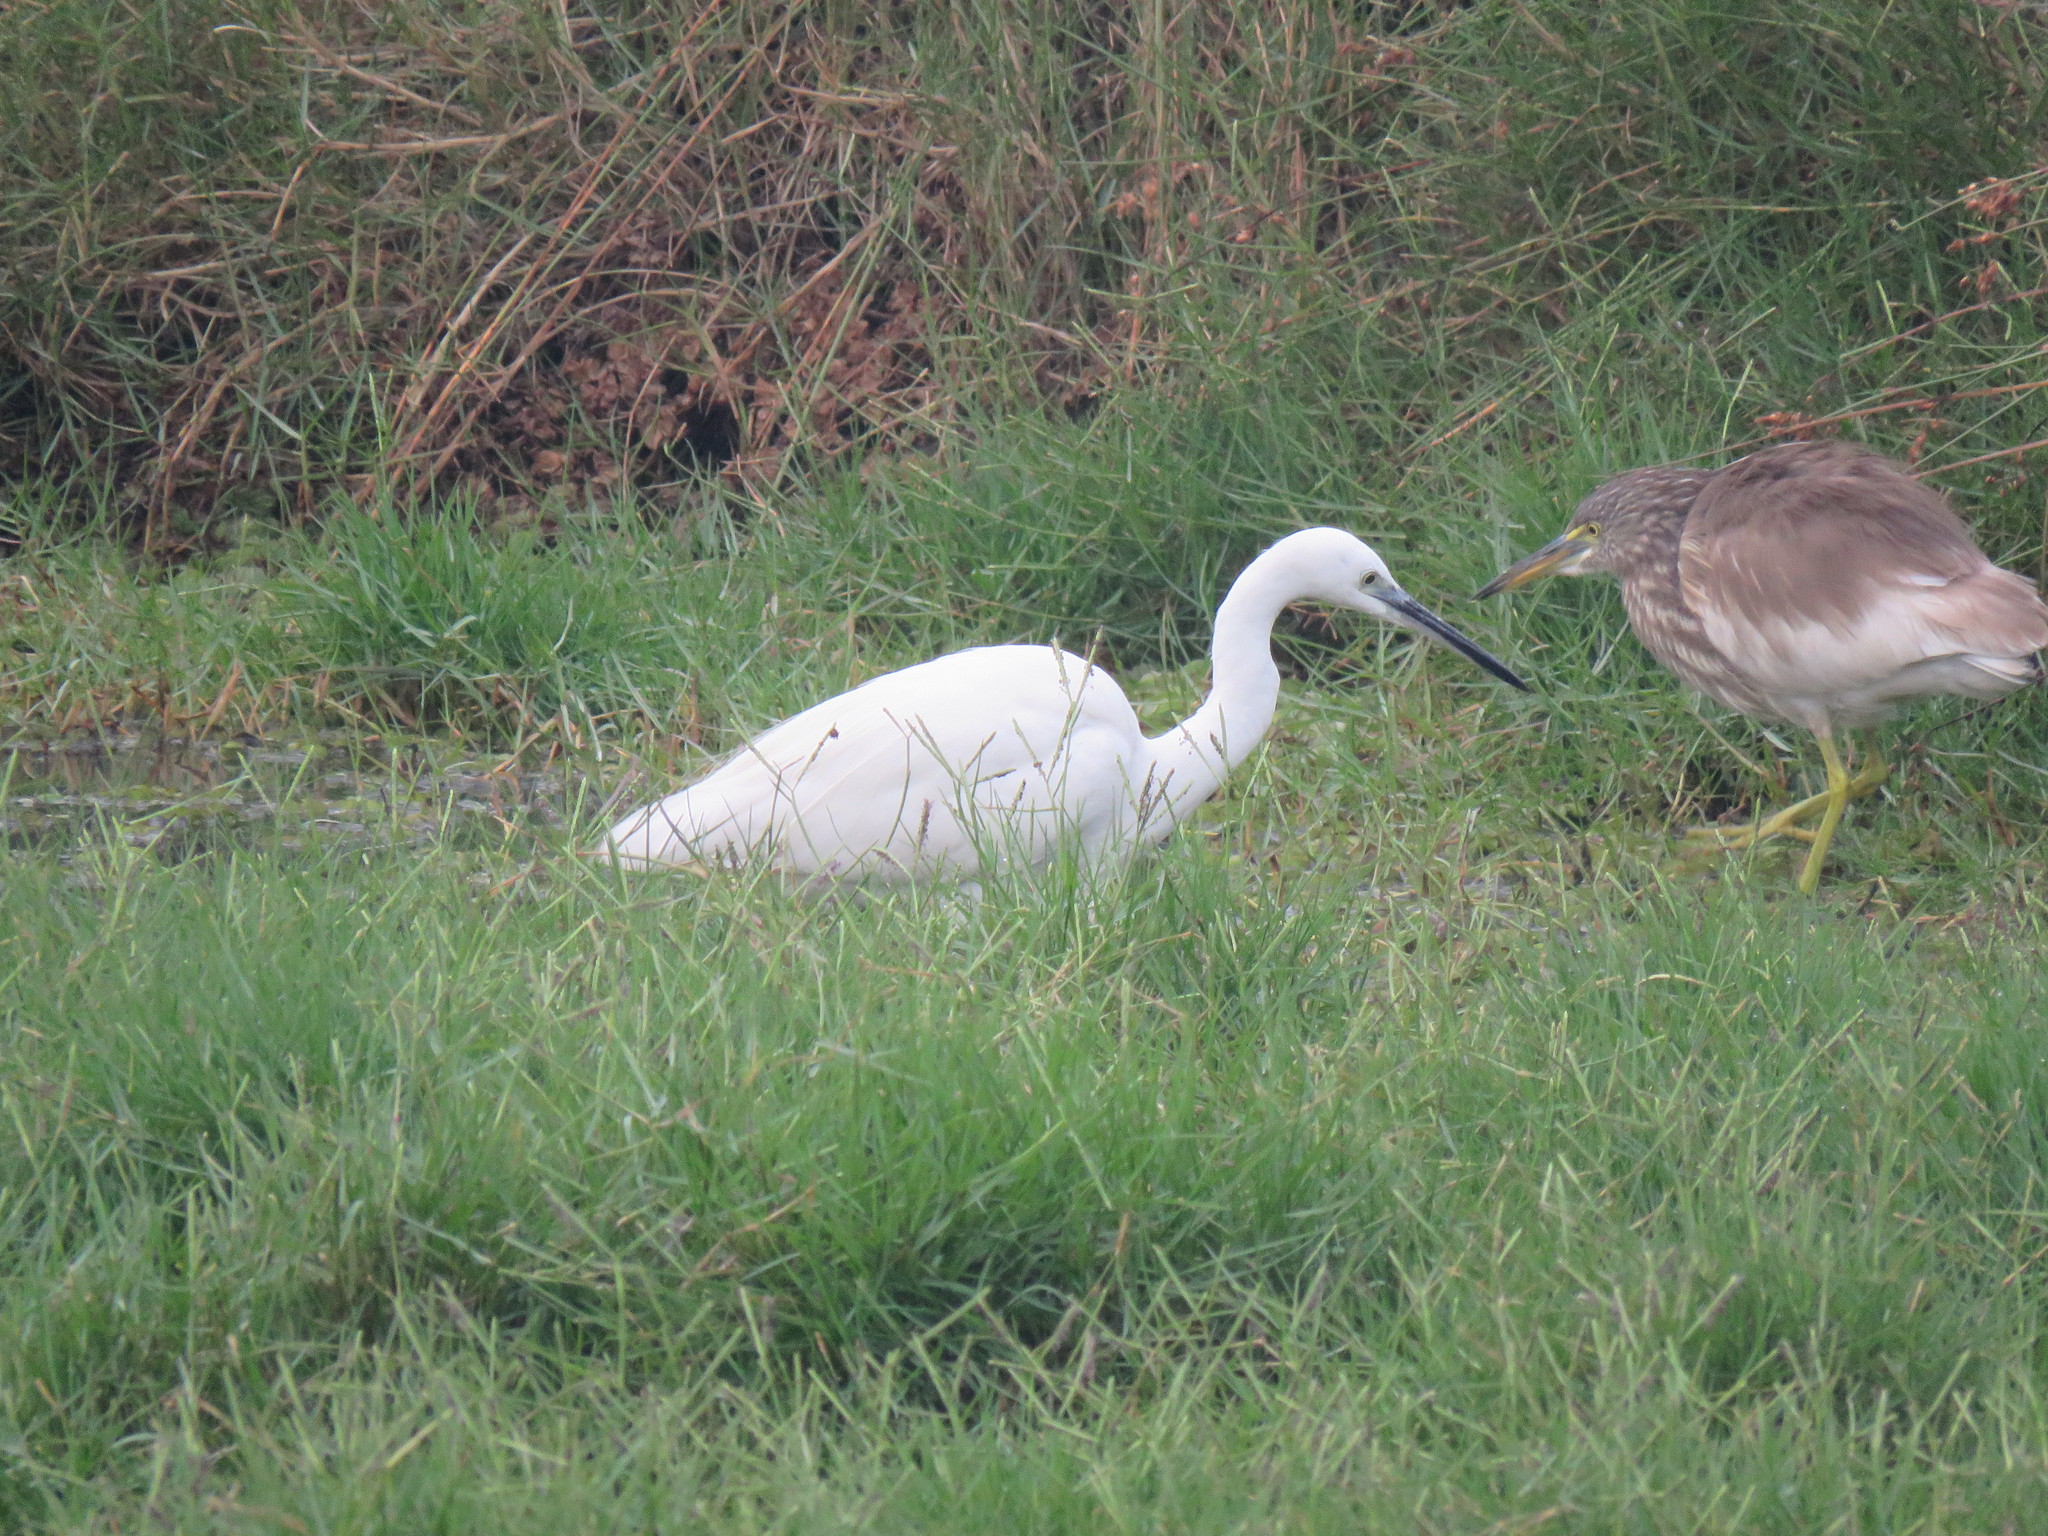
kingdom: Animalia
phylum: Chordata
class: Aves
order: Pelecaniformes
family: Ardeidae
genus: Egretta
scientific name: Egretta garzetta
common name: Little egret
